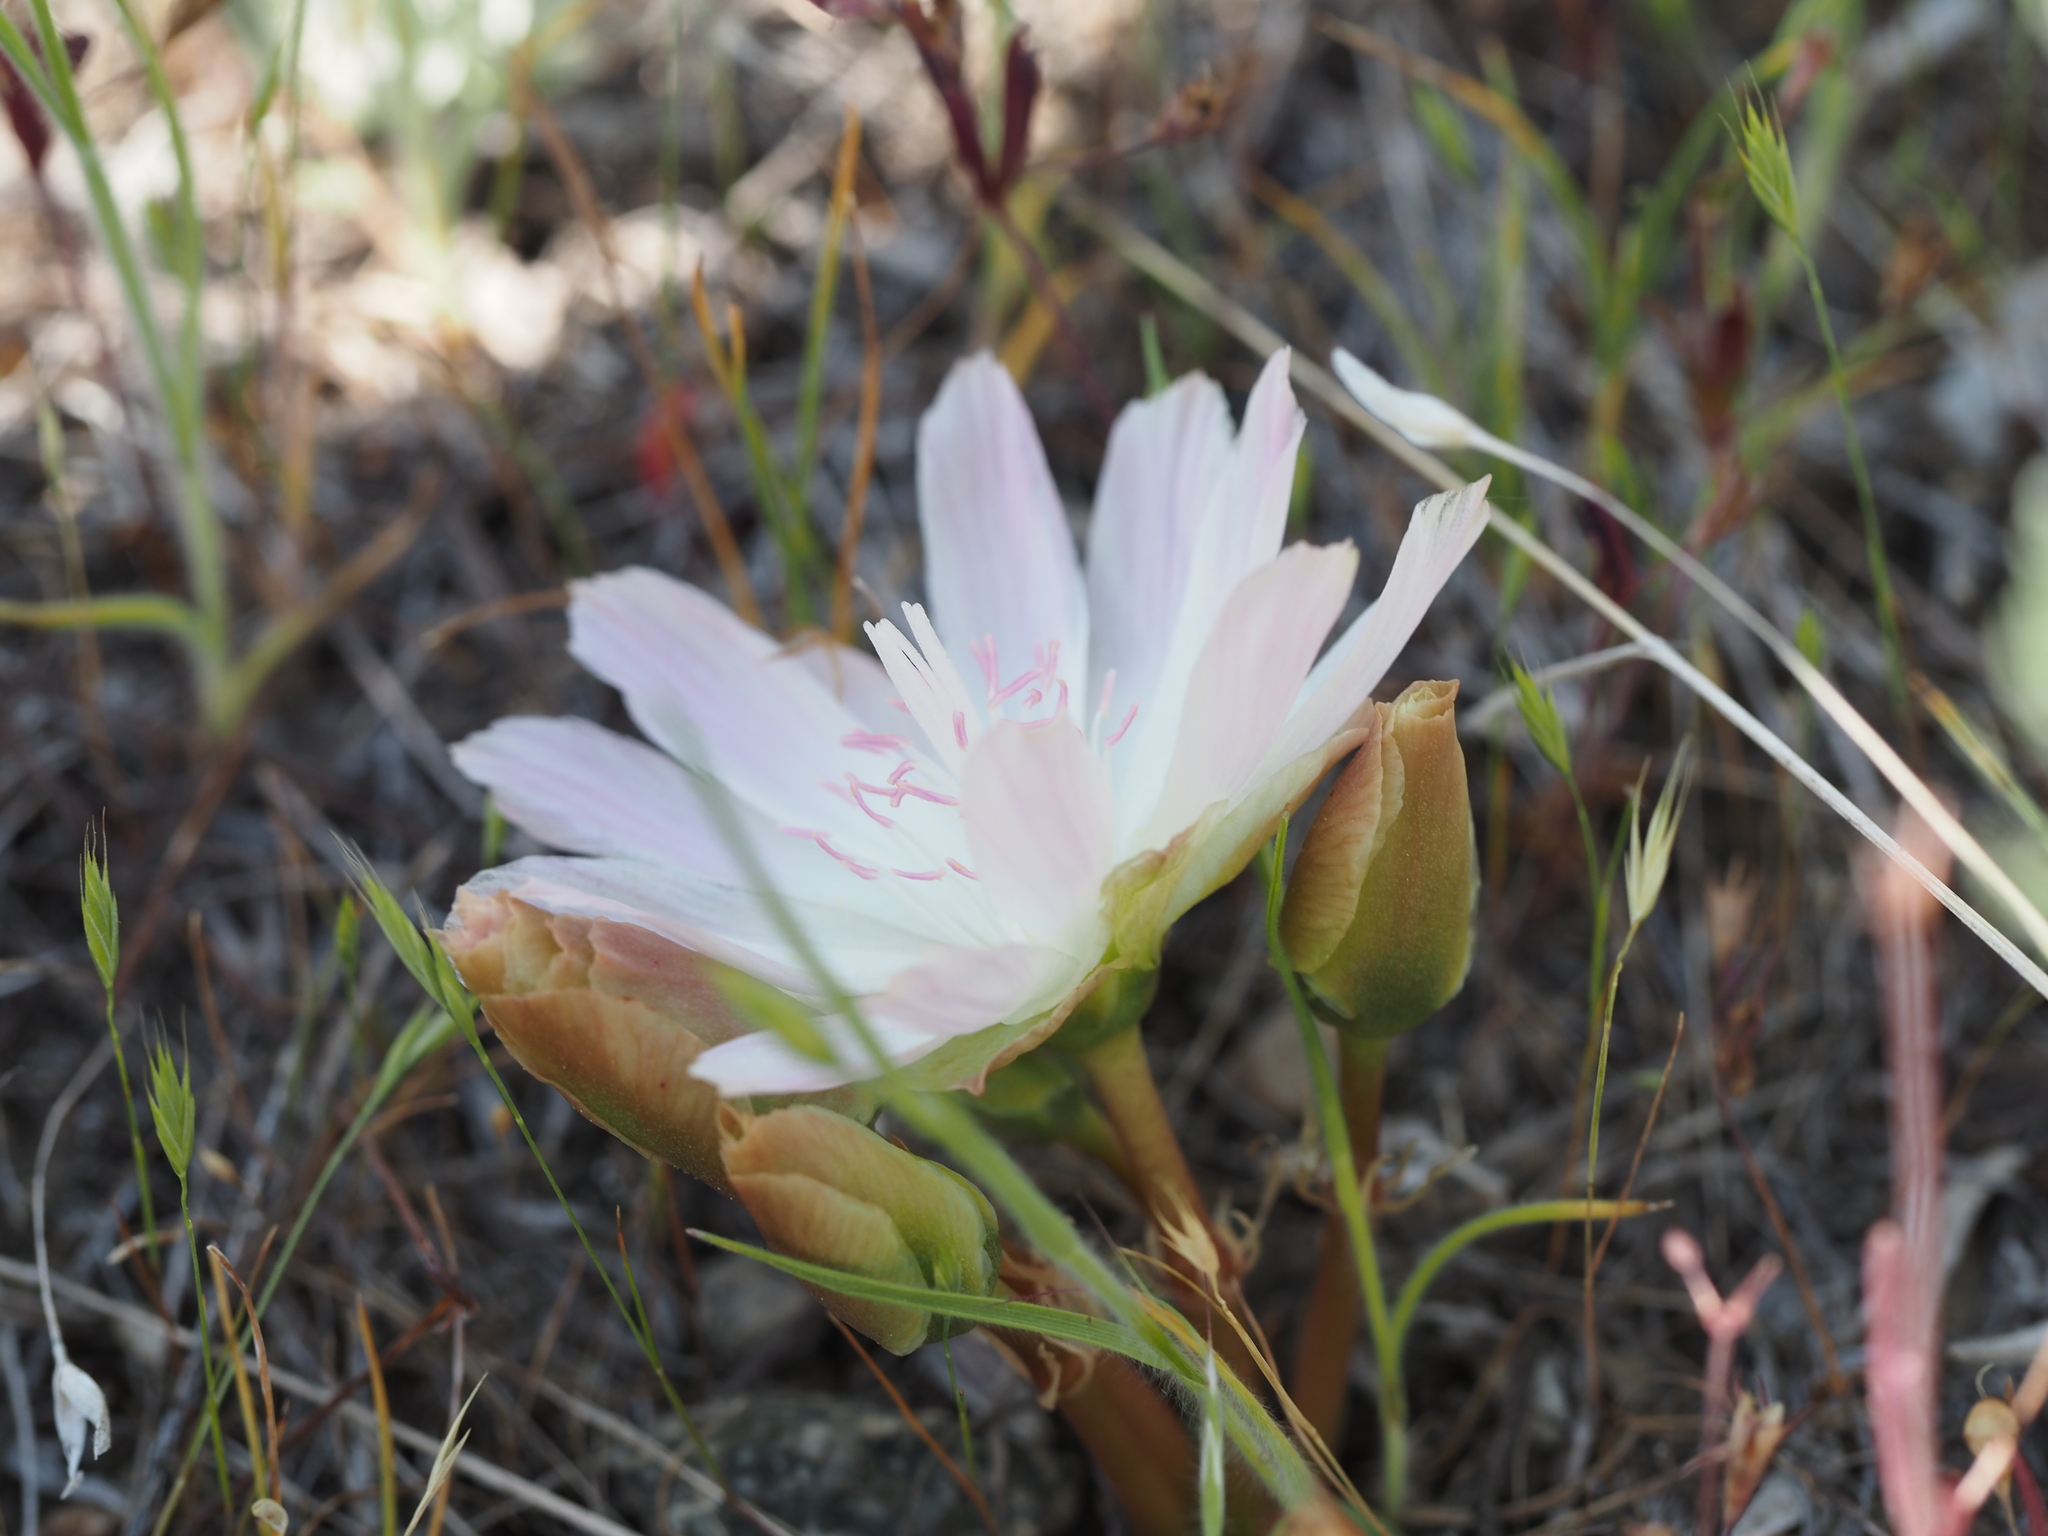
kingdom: Plantae
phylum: Tracheophyta
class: Magnoliopsida
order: Caryophyllales
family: Montiaceae
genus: Lewisia
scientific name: Lewisia rediviva
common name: Bitter-root
